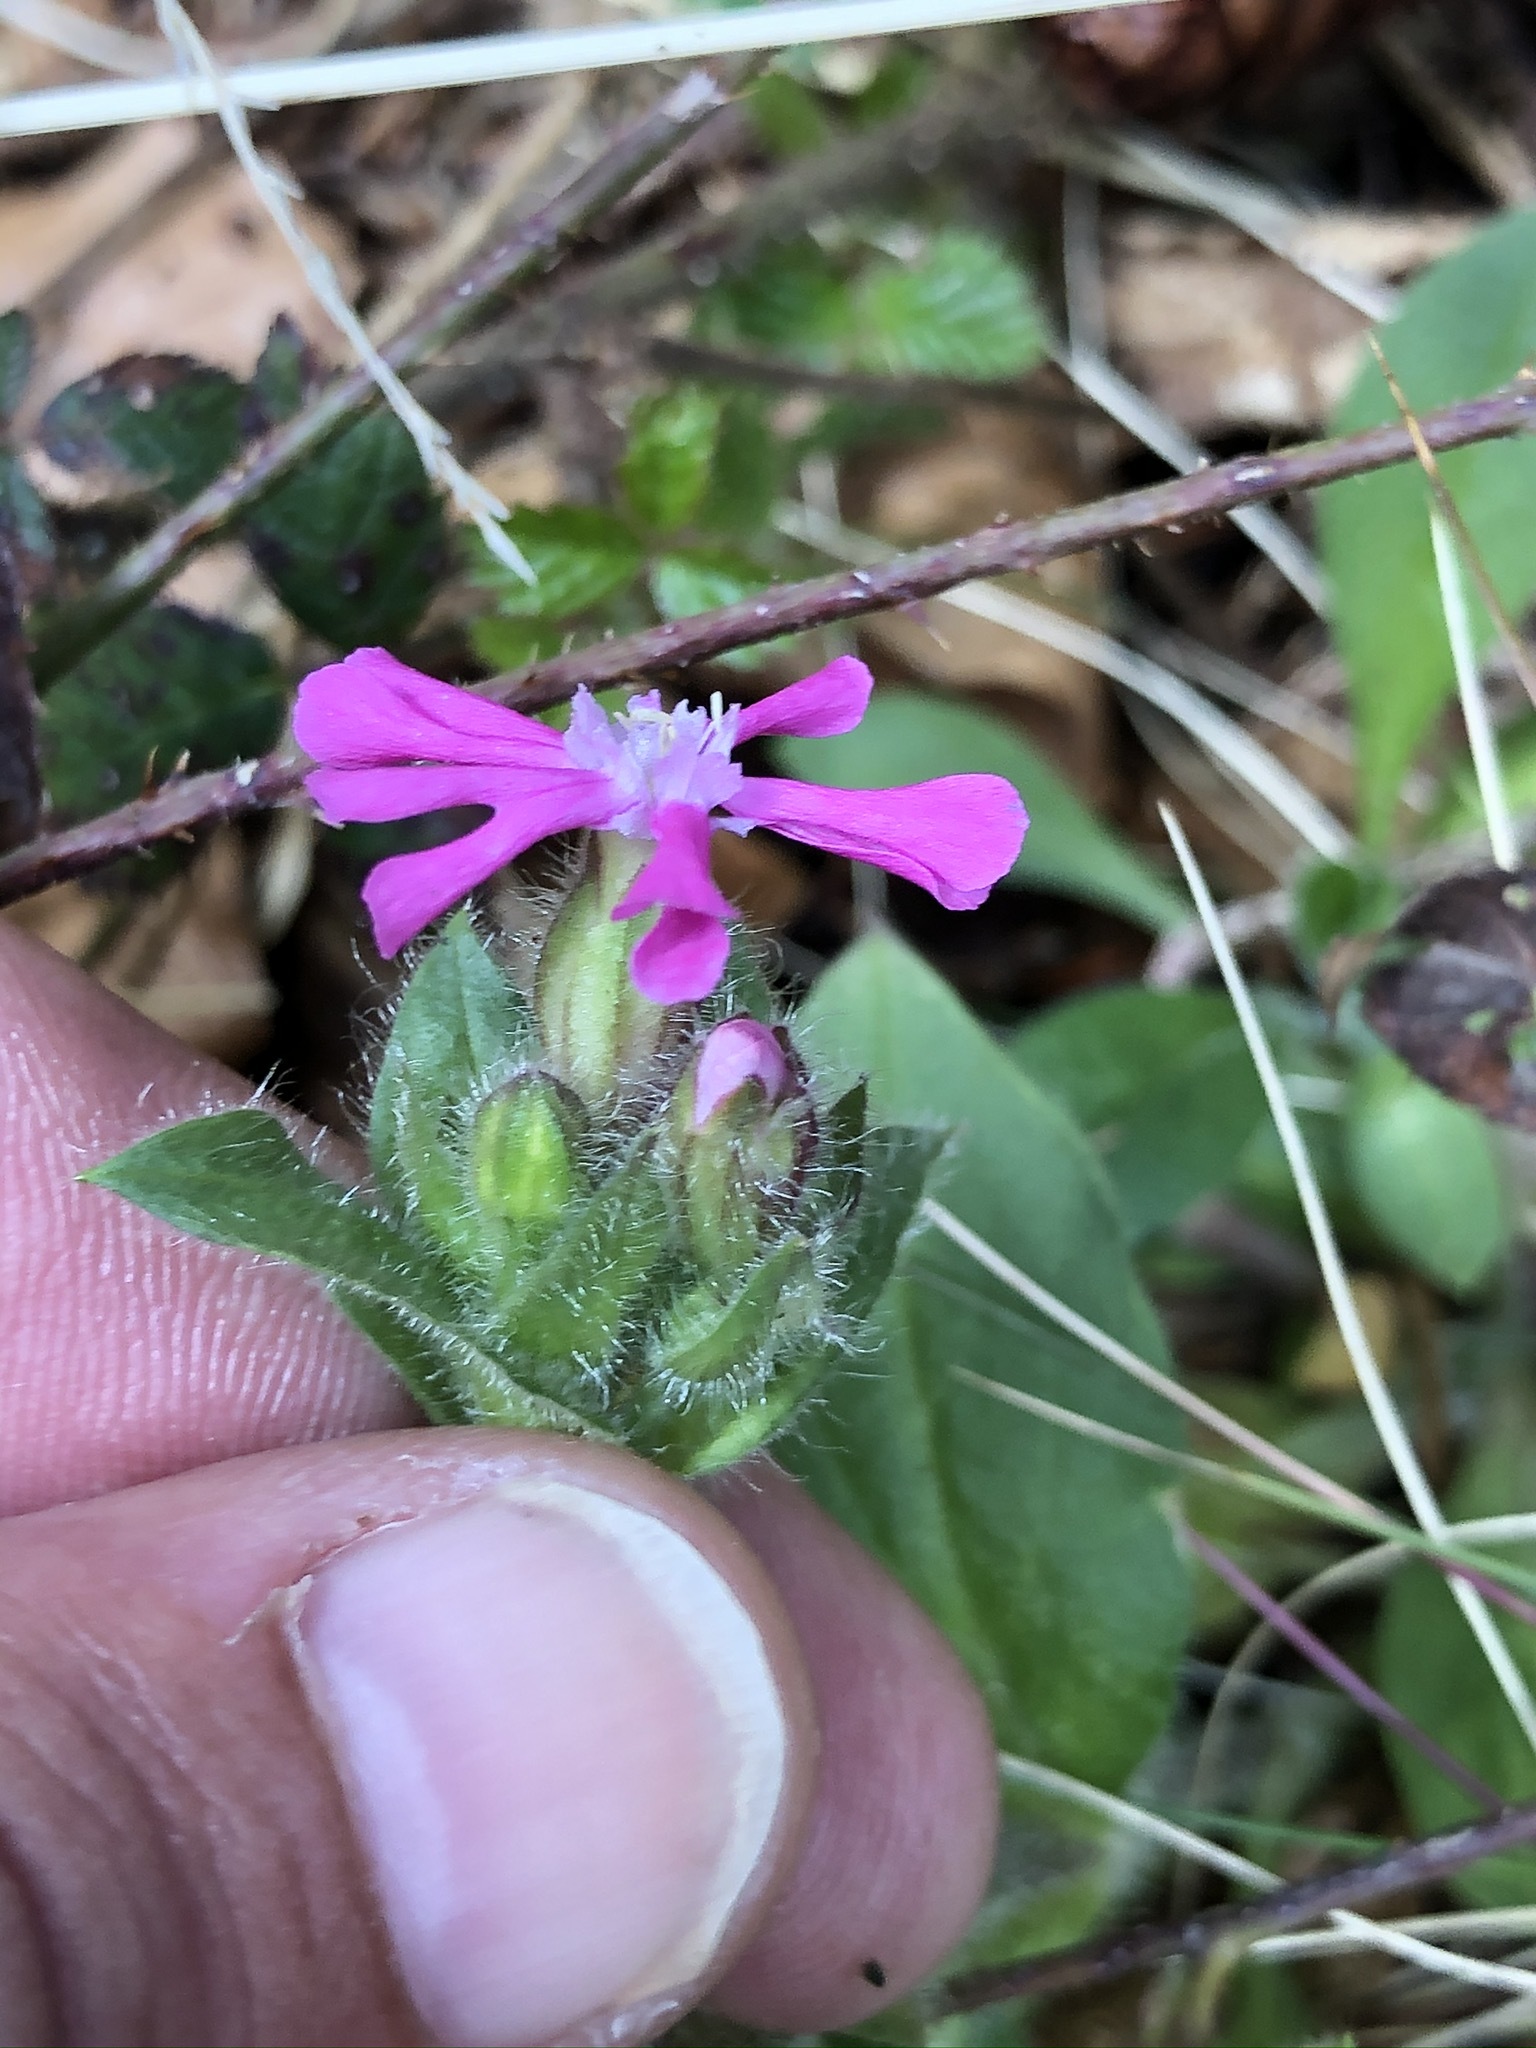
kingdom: Plantae
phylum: Tracheophyta
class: Magnoliopsida
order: Caryophyllales
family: Caryophyllaceae
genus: Silene
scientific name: Silene dioica
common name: Red campion
